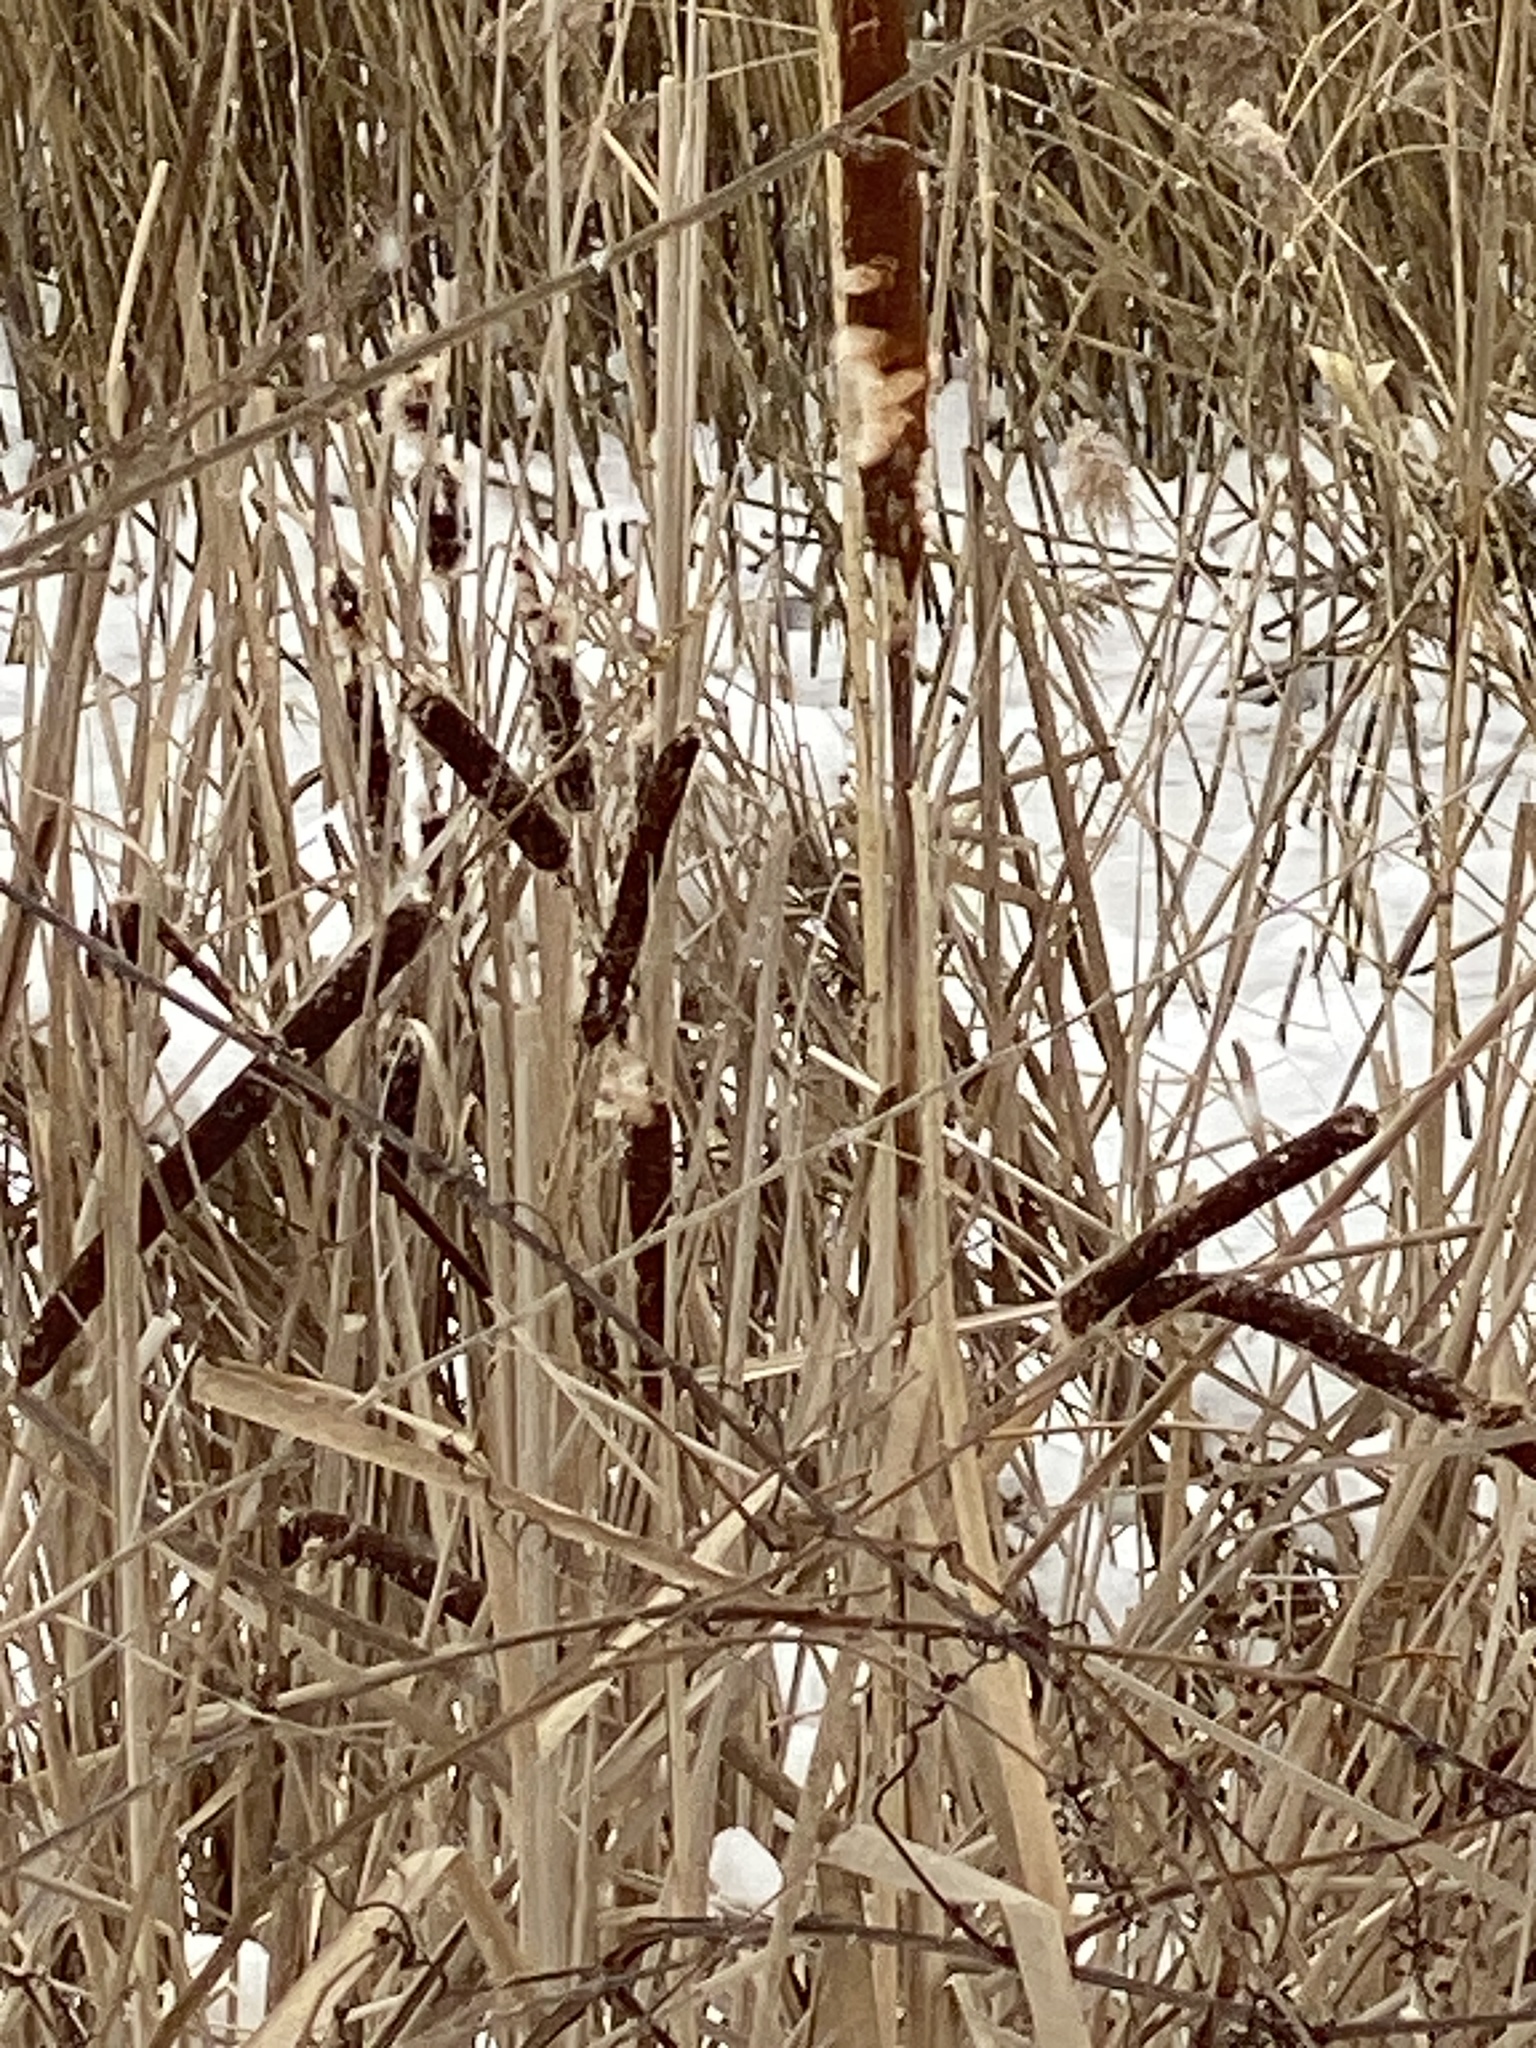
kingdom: Plantae
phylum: Tracheophyta
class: Liliopsida
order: Poales
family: Typhaceae
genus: Typha
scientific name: Typha
